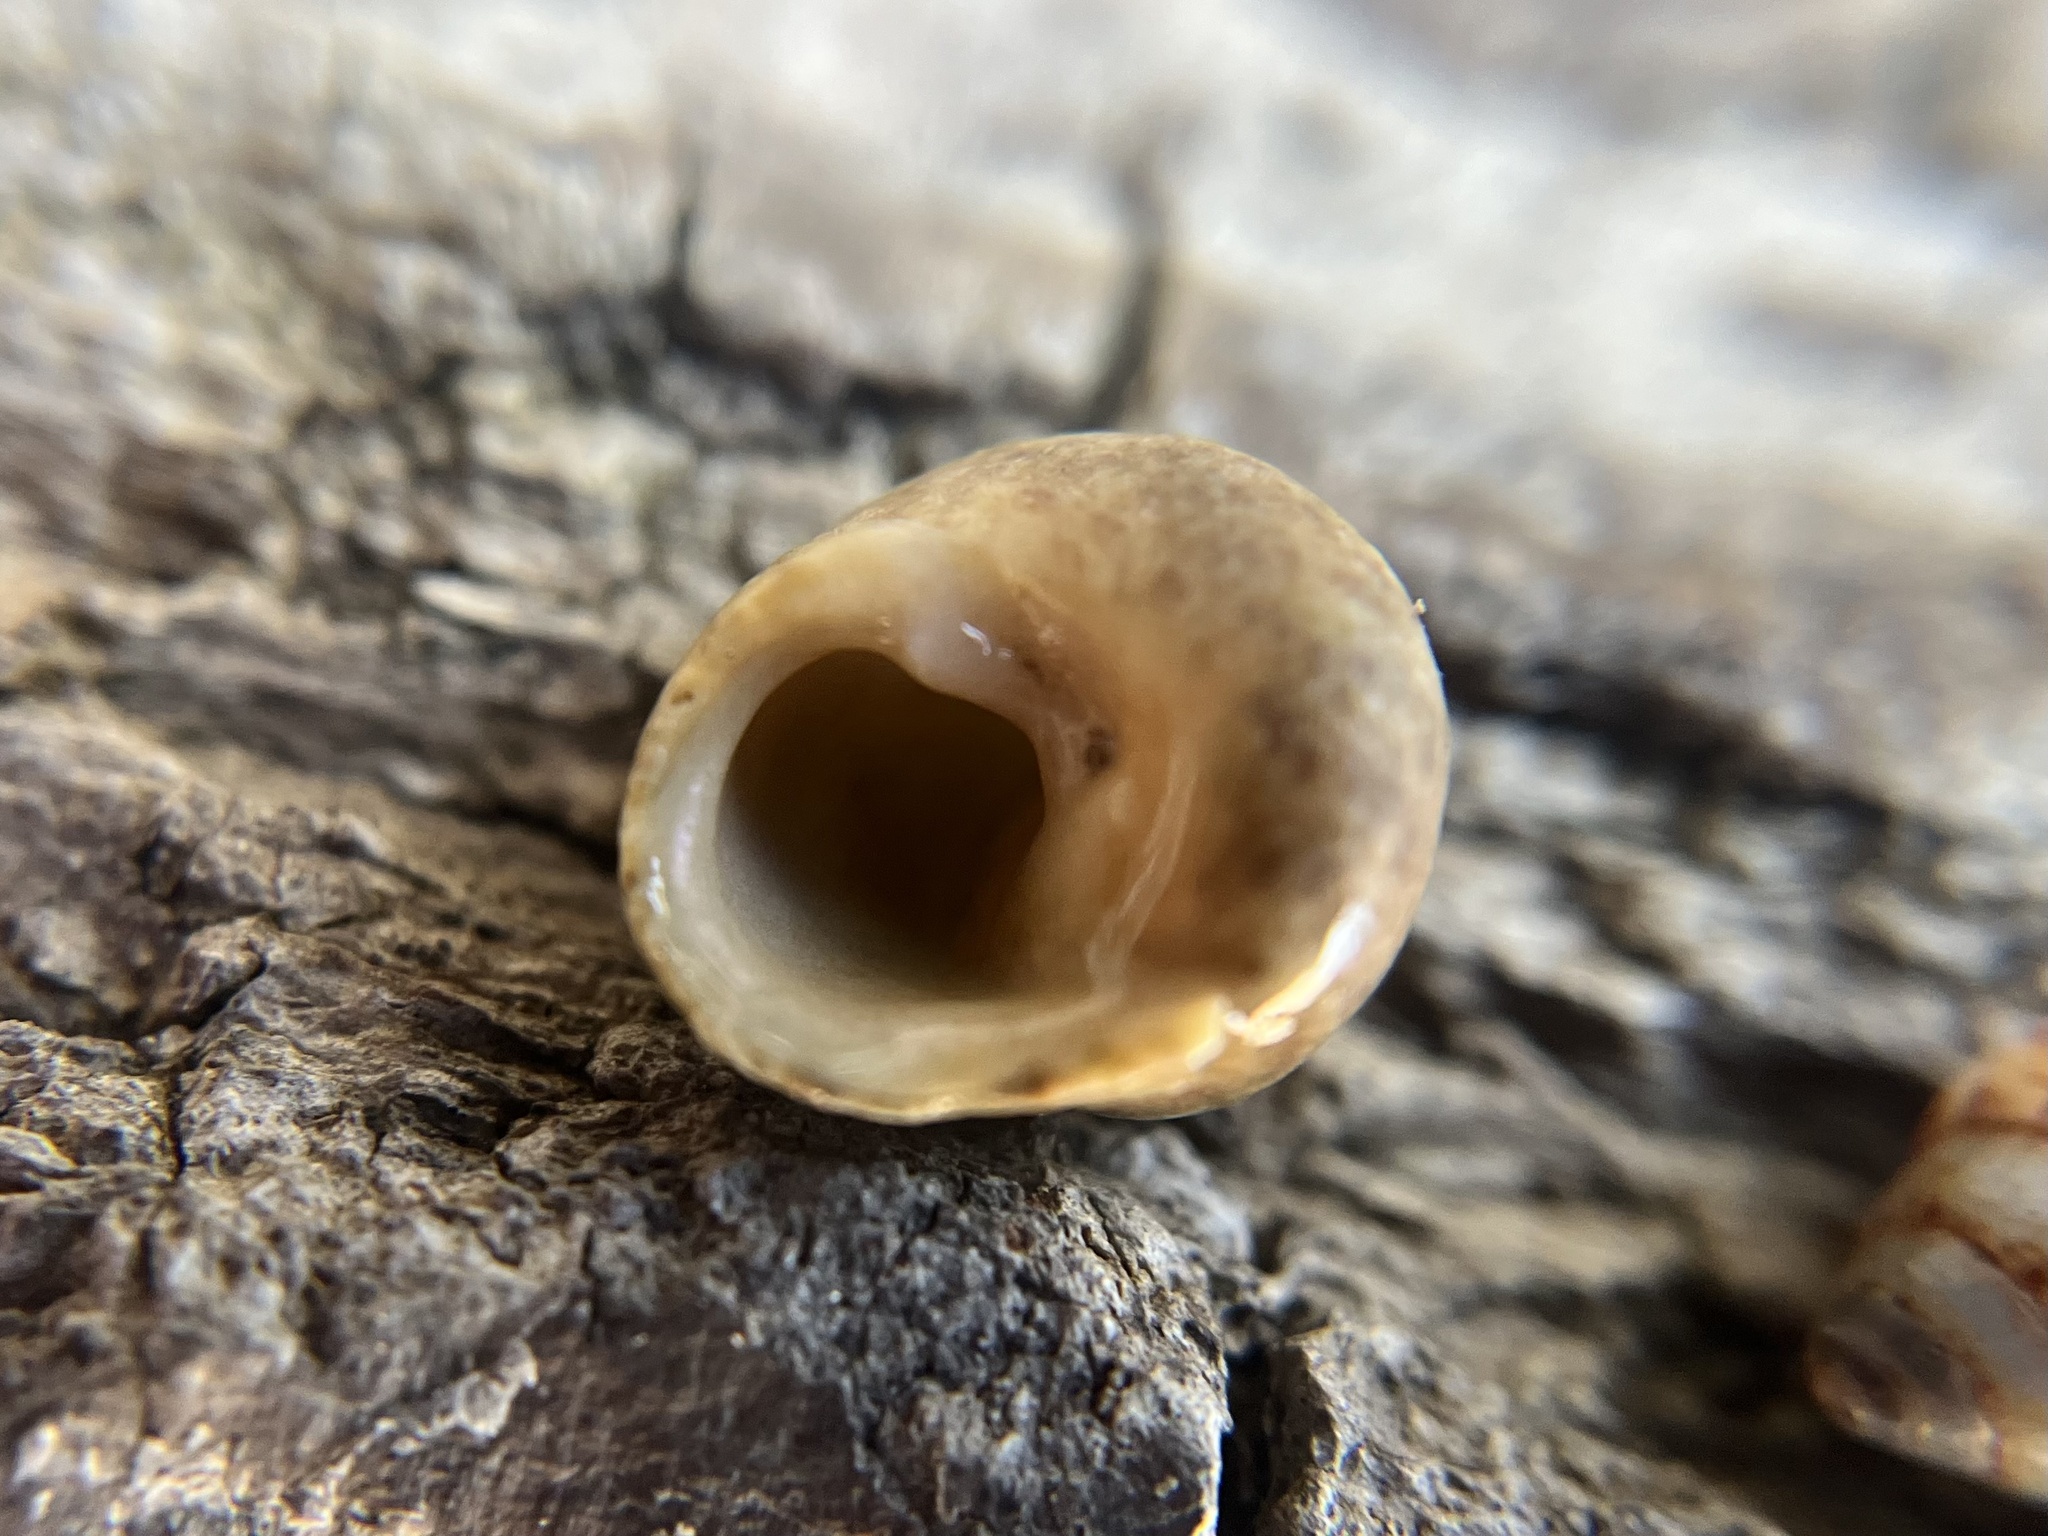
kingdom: Animalia
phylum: Mollusca
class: Gastropoda
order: Trochida
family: Trochidae
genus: Phorcus
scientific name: Phorcus mutabilis
